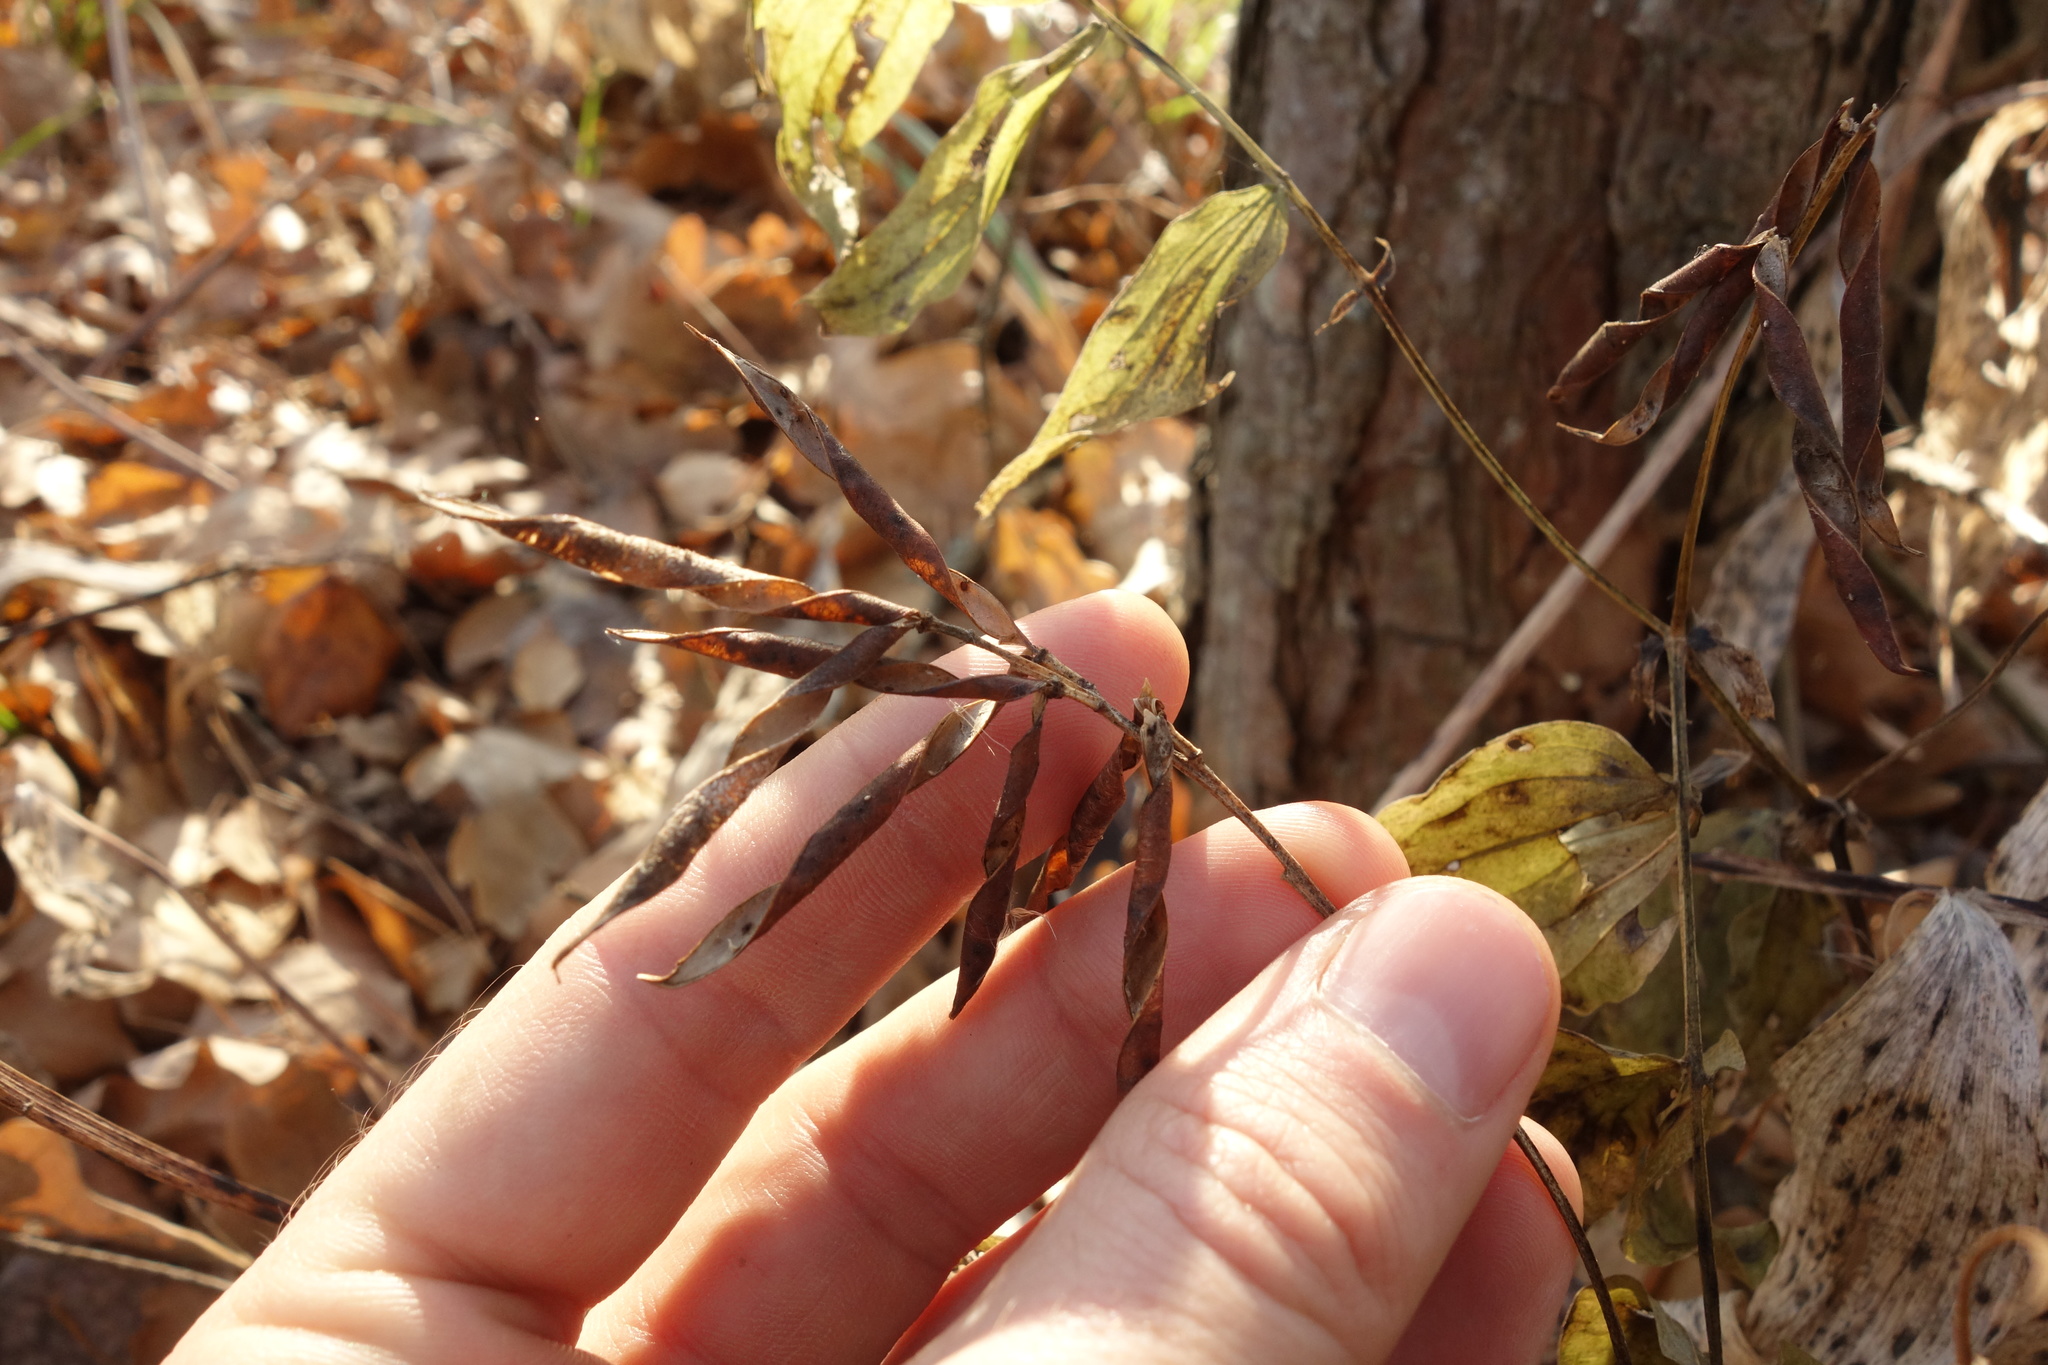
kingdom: Plantae
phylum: Tracheophyta
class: Magnoliopsida
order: Fabales
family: Fabaceae
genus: Lathyrus
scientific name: Lathyrus vernus
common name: Spring pea
